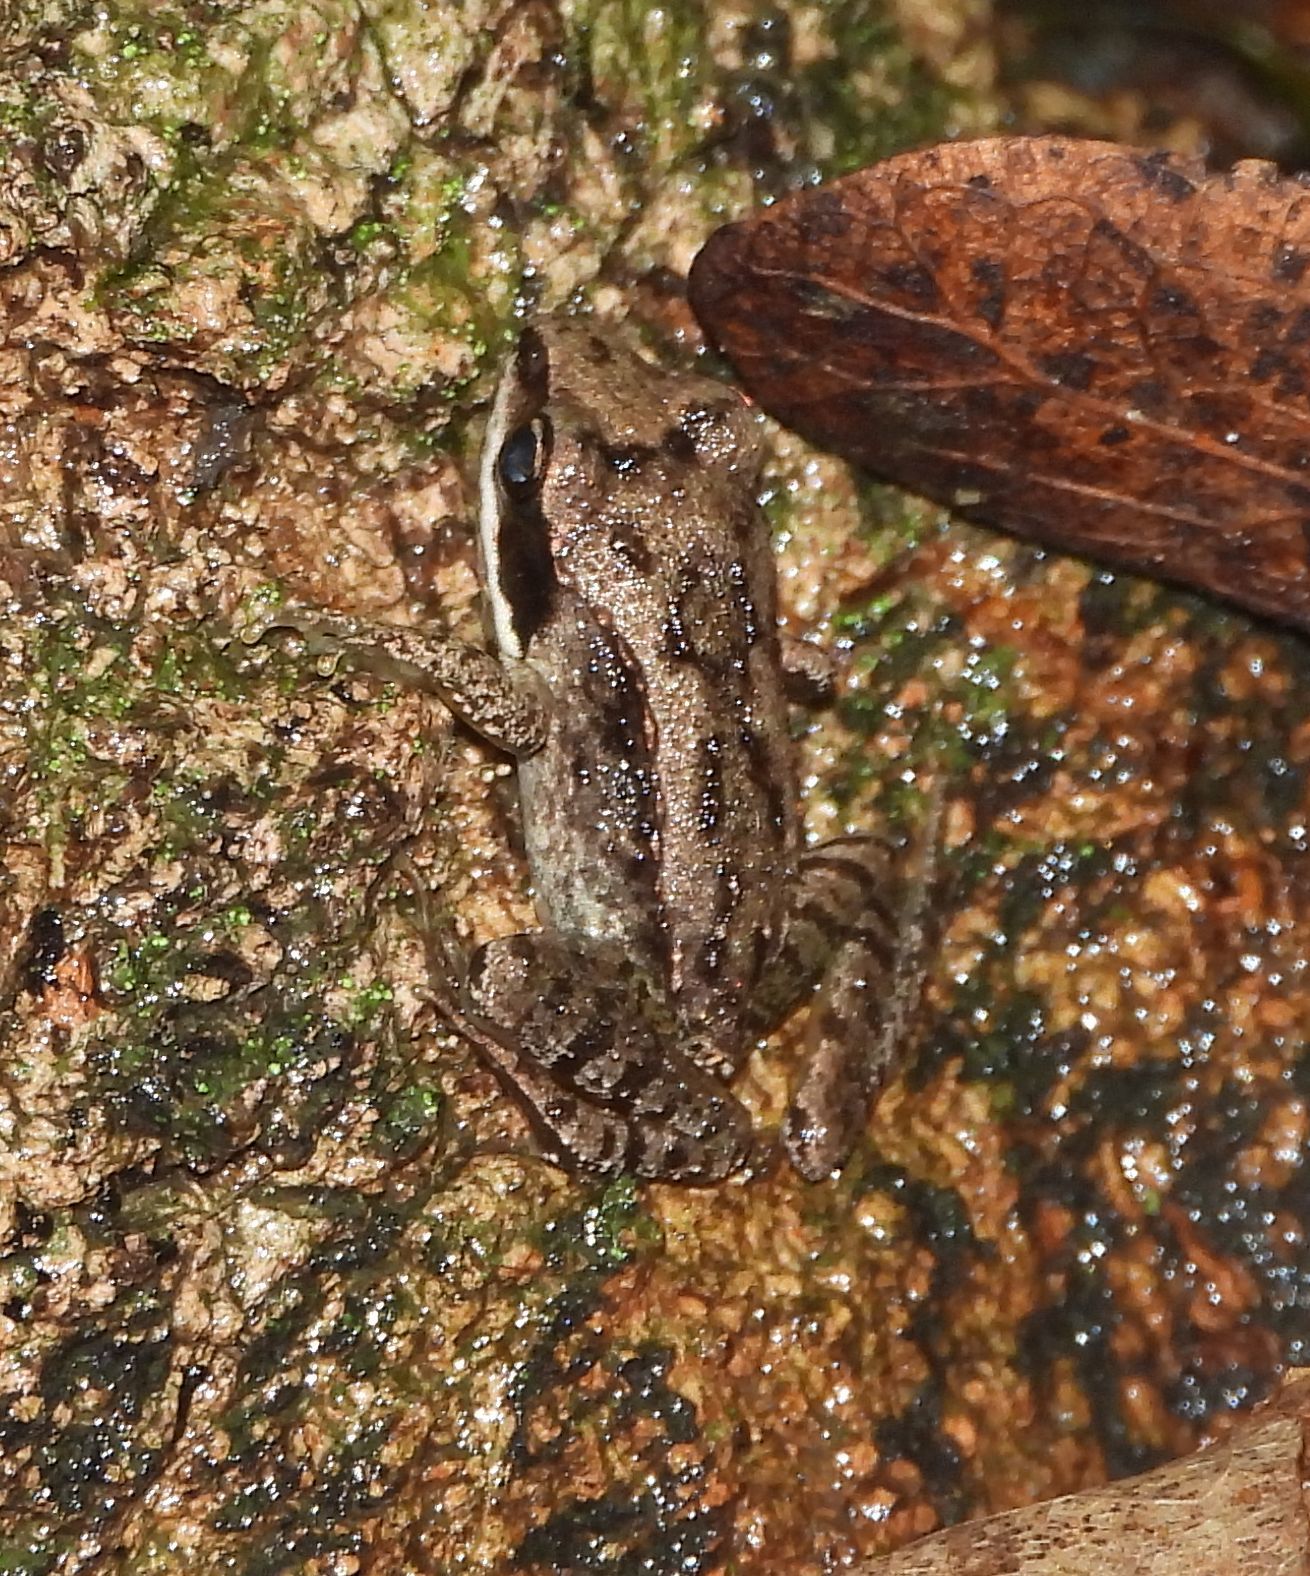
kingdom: Animalia
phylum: Chordata
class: Amphibia
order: Anura
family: Ranidae
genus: Lithobates
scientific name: Lithobates sylvaticus
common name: Wood frog
